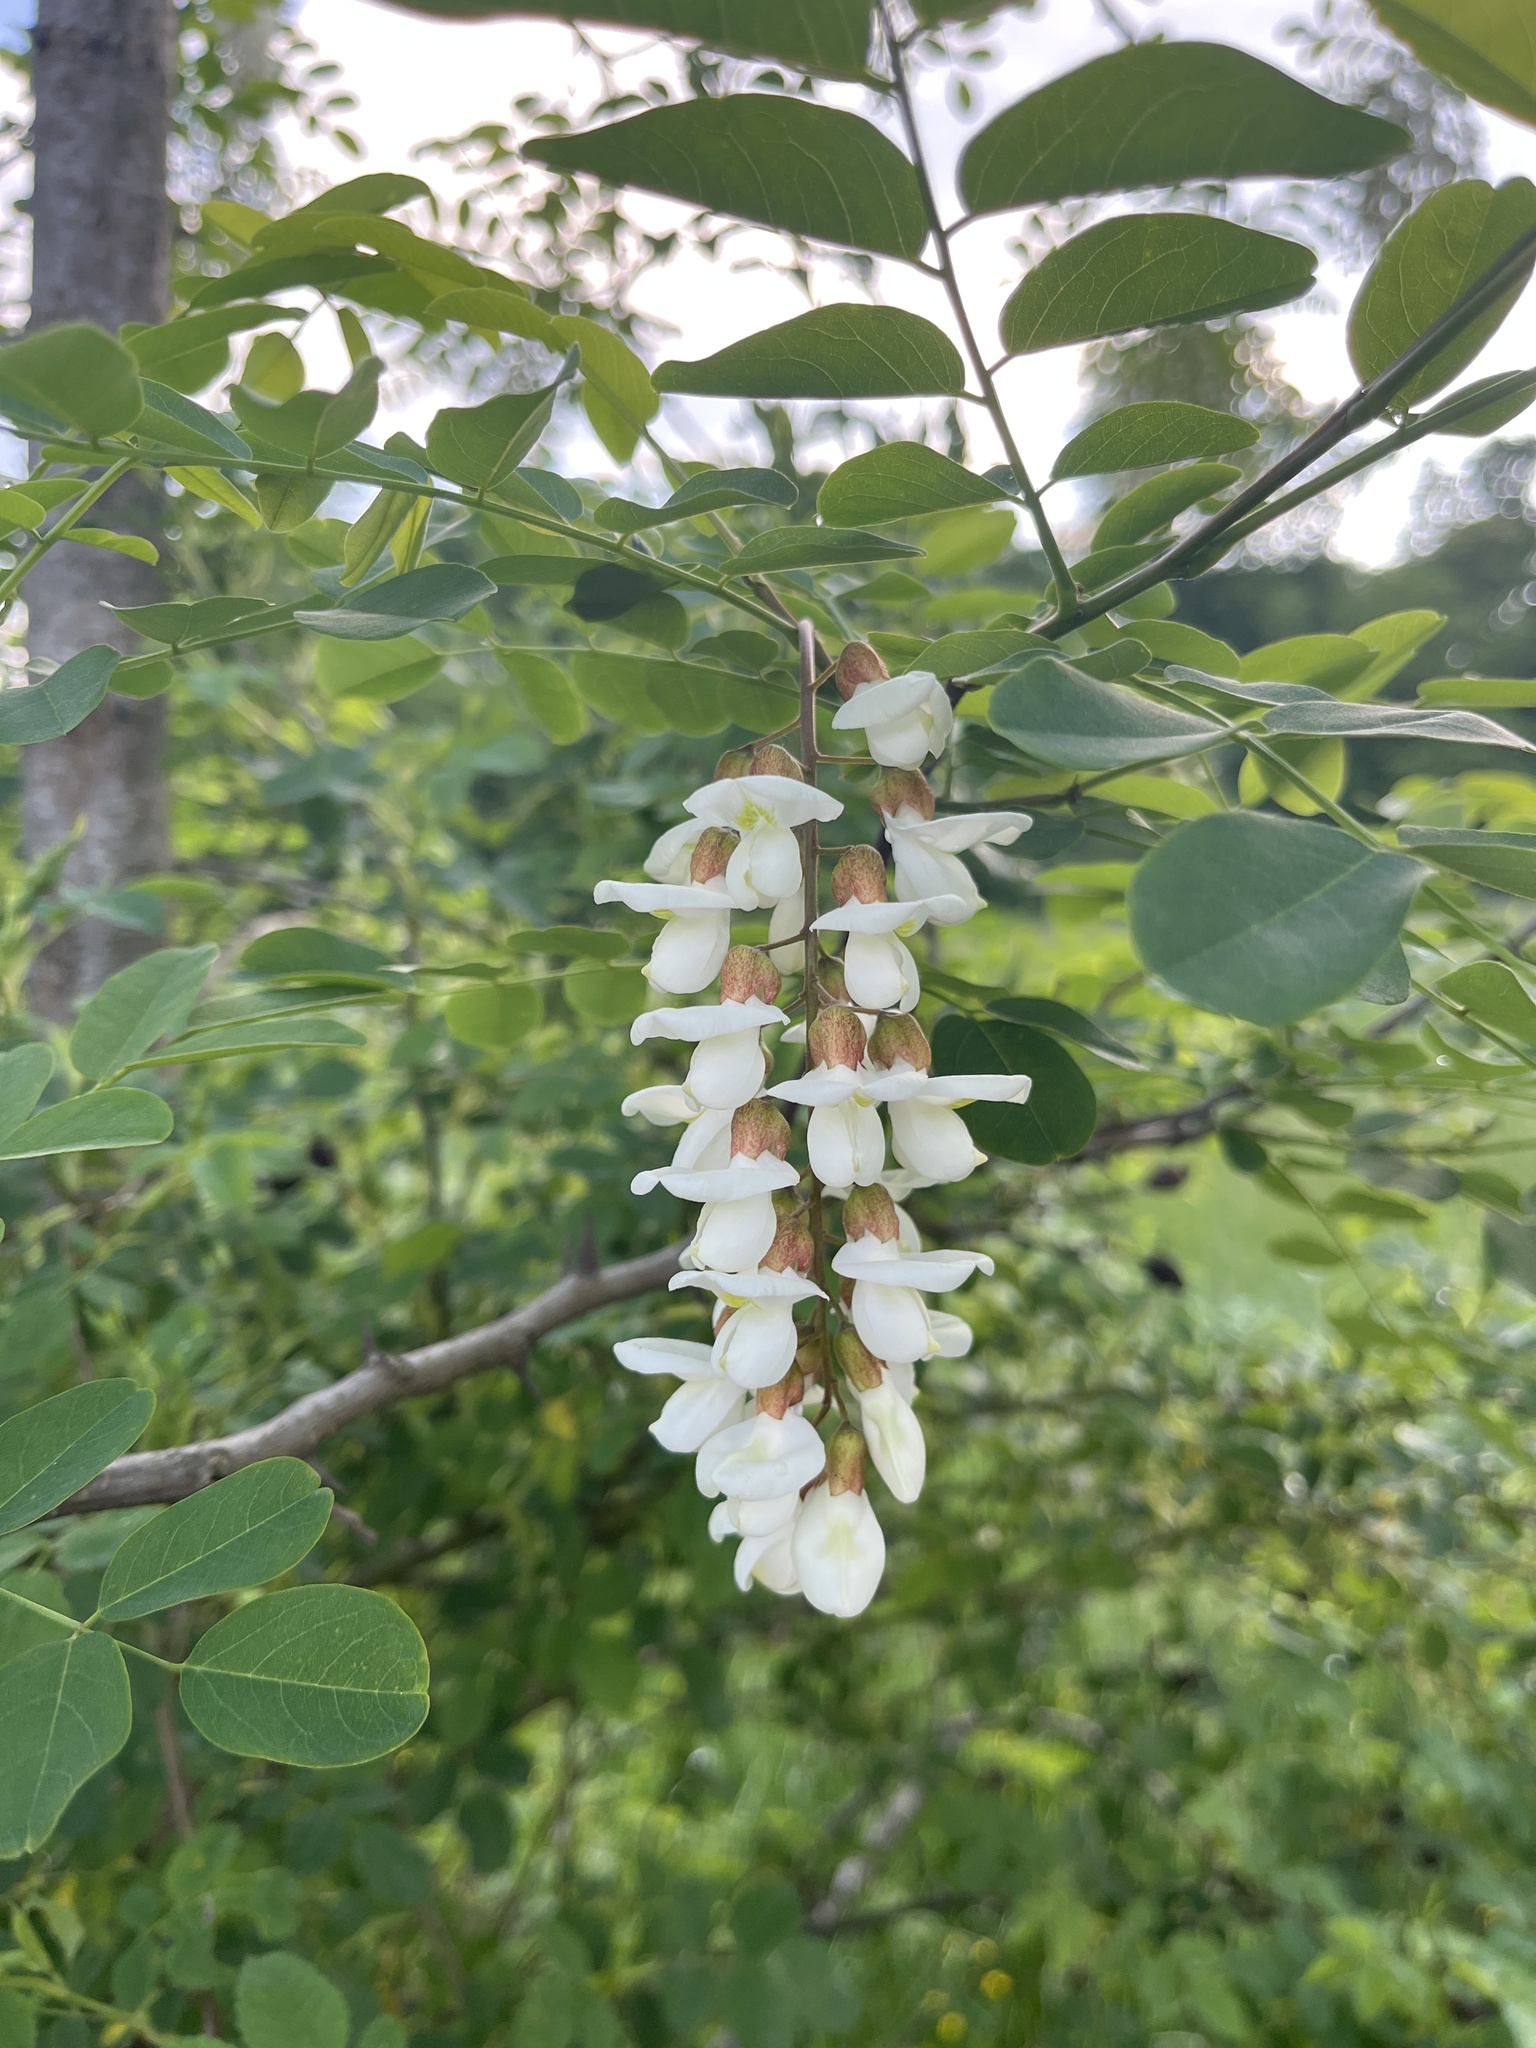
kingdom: Plantae
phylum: Tracheophyta
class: Magnoliopsida
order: Fabales
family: Fabaceae
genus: Robinia
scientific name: Robinia pseudoacacia
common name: Black locust
